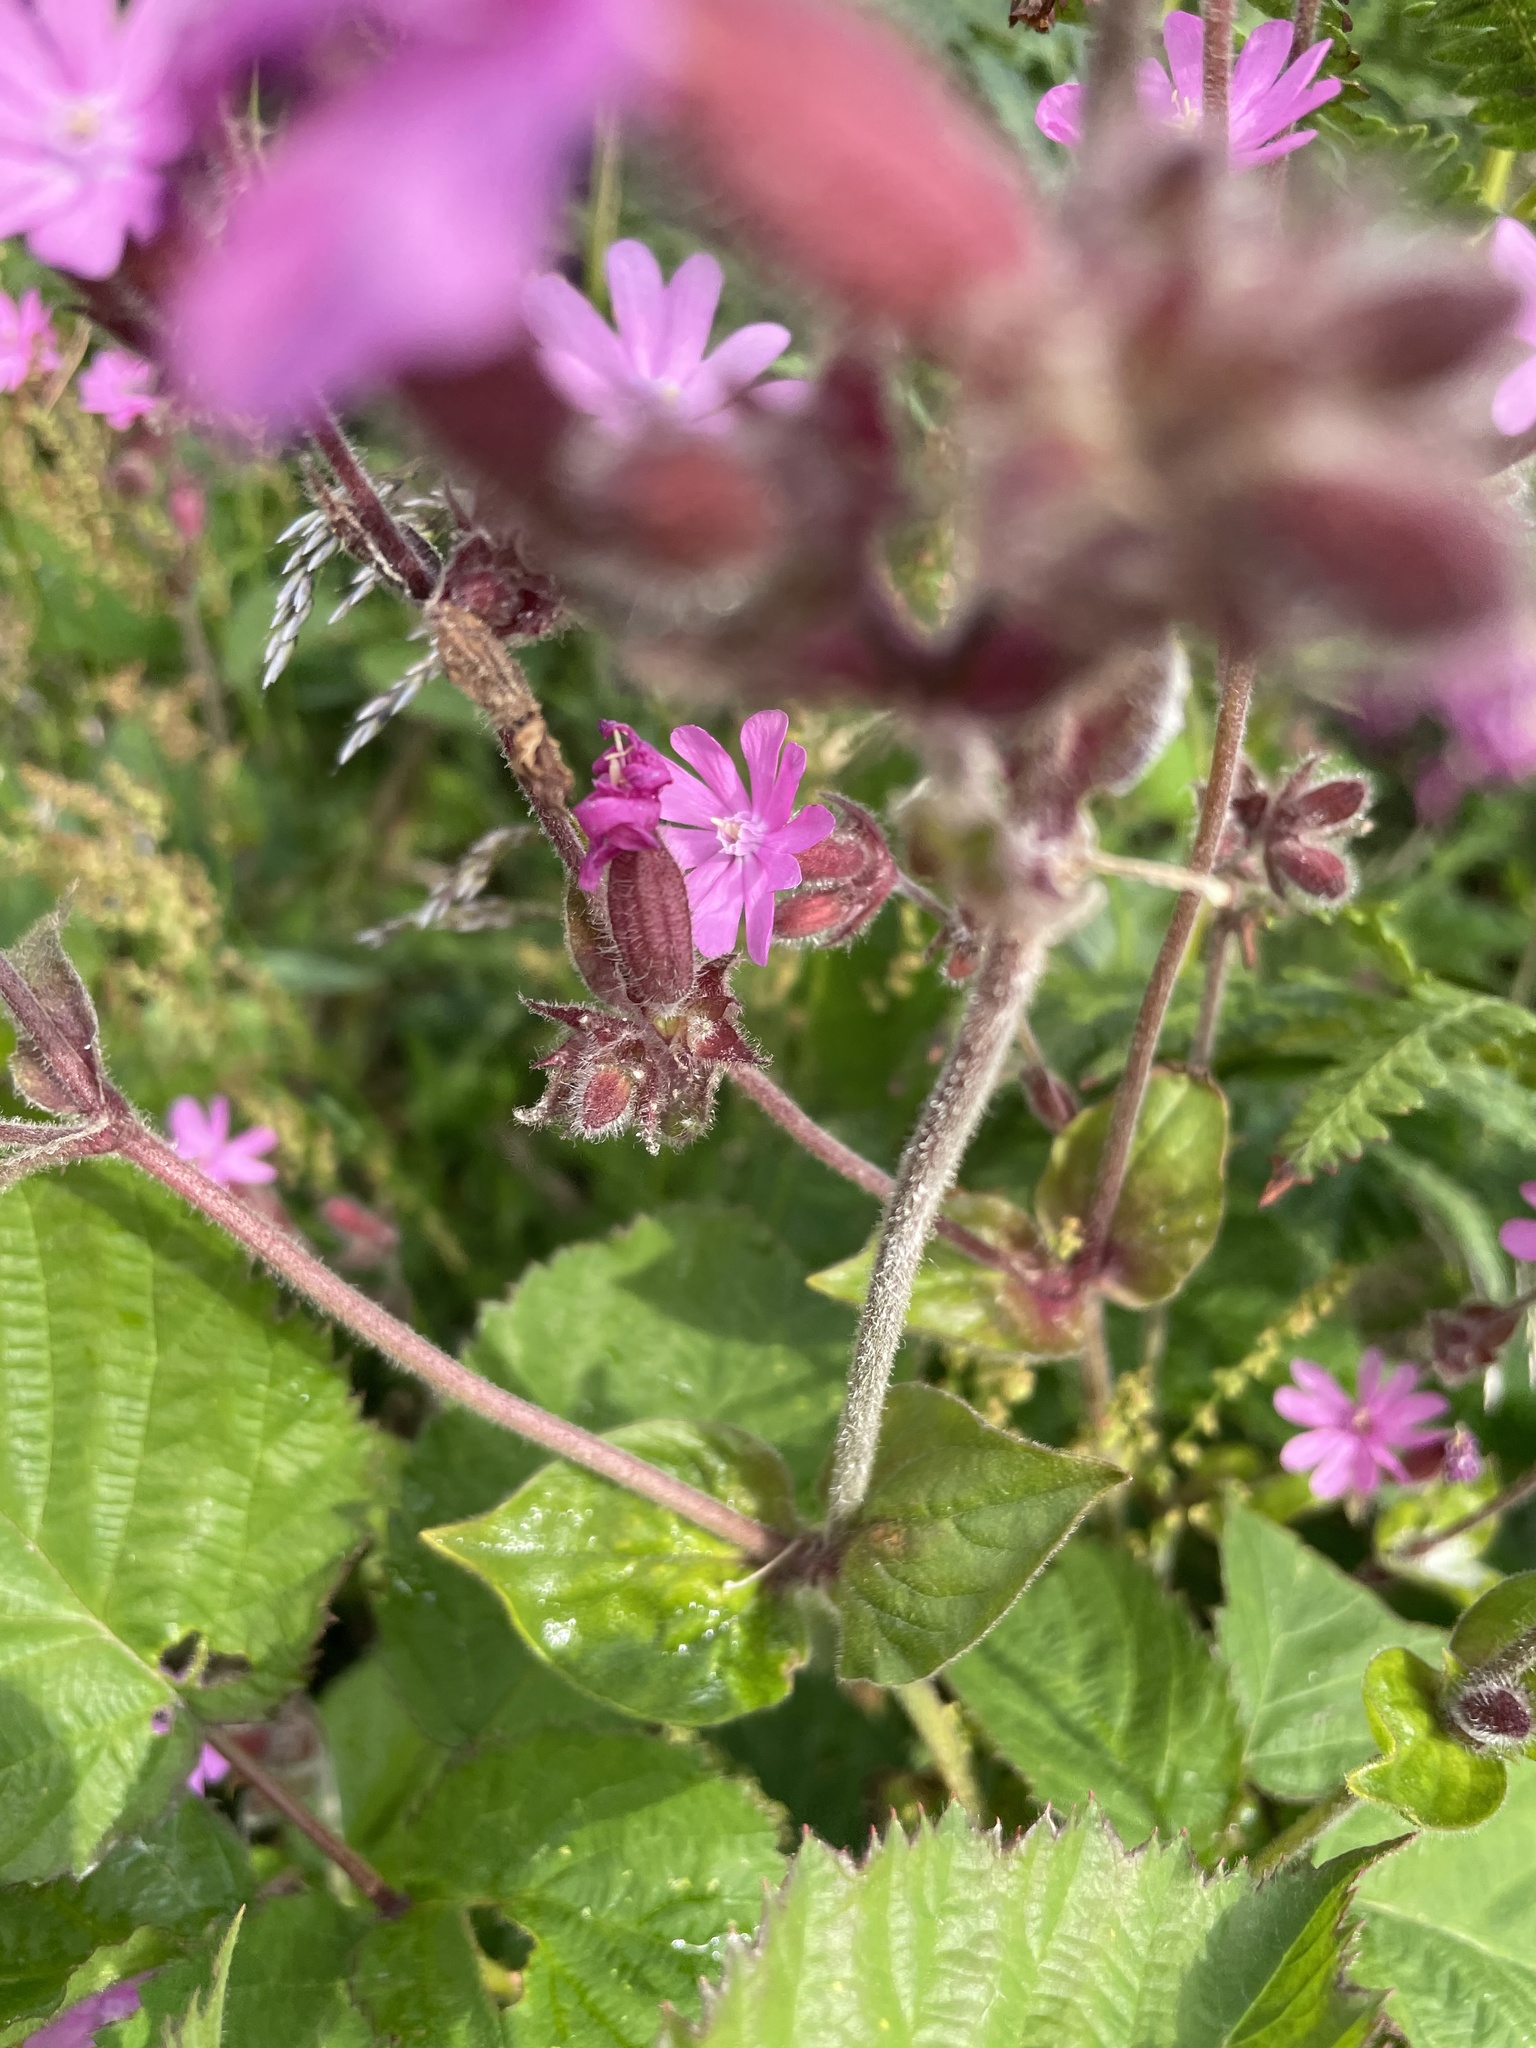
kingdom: Plantae
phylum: Tracheophyta
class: Magnoliopsida
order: Caryophyllales
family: Caryophyllaceae
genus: Silene
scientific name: Silene dioica
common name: Red campion
